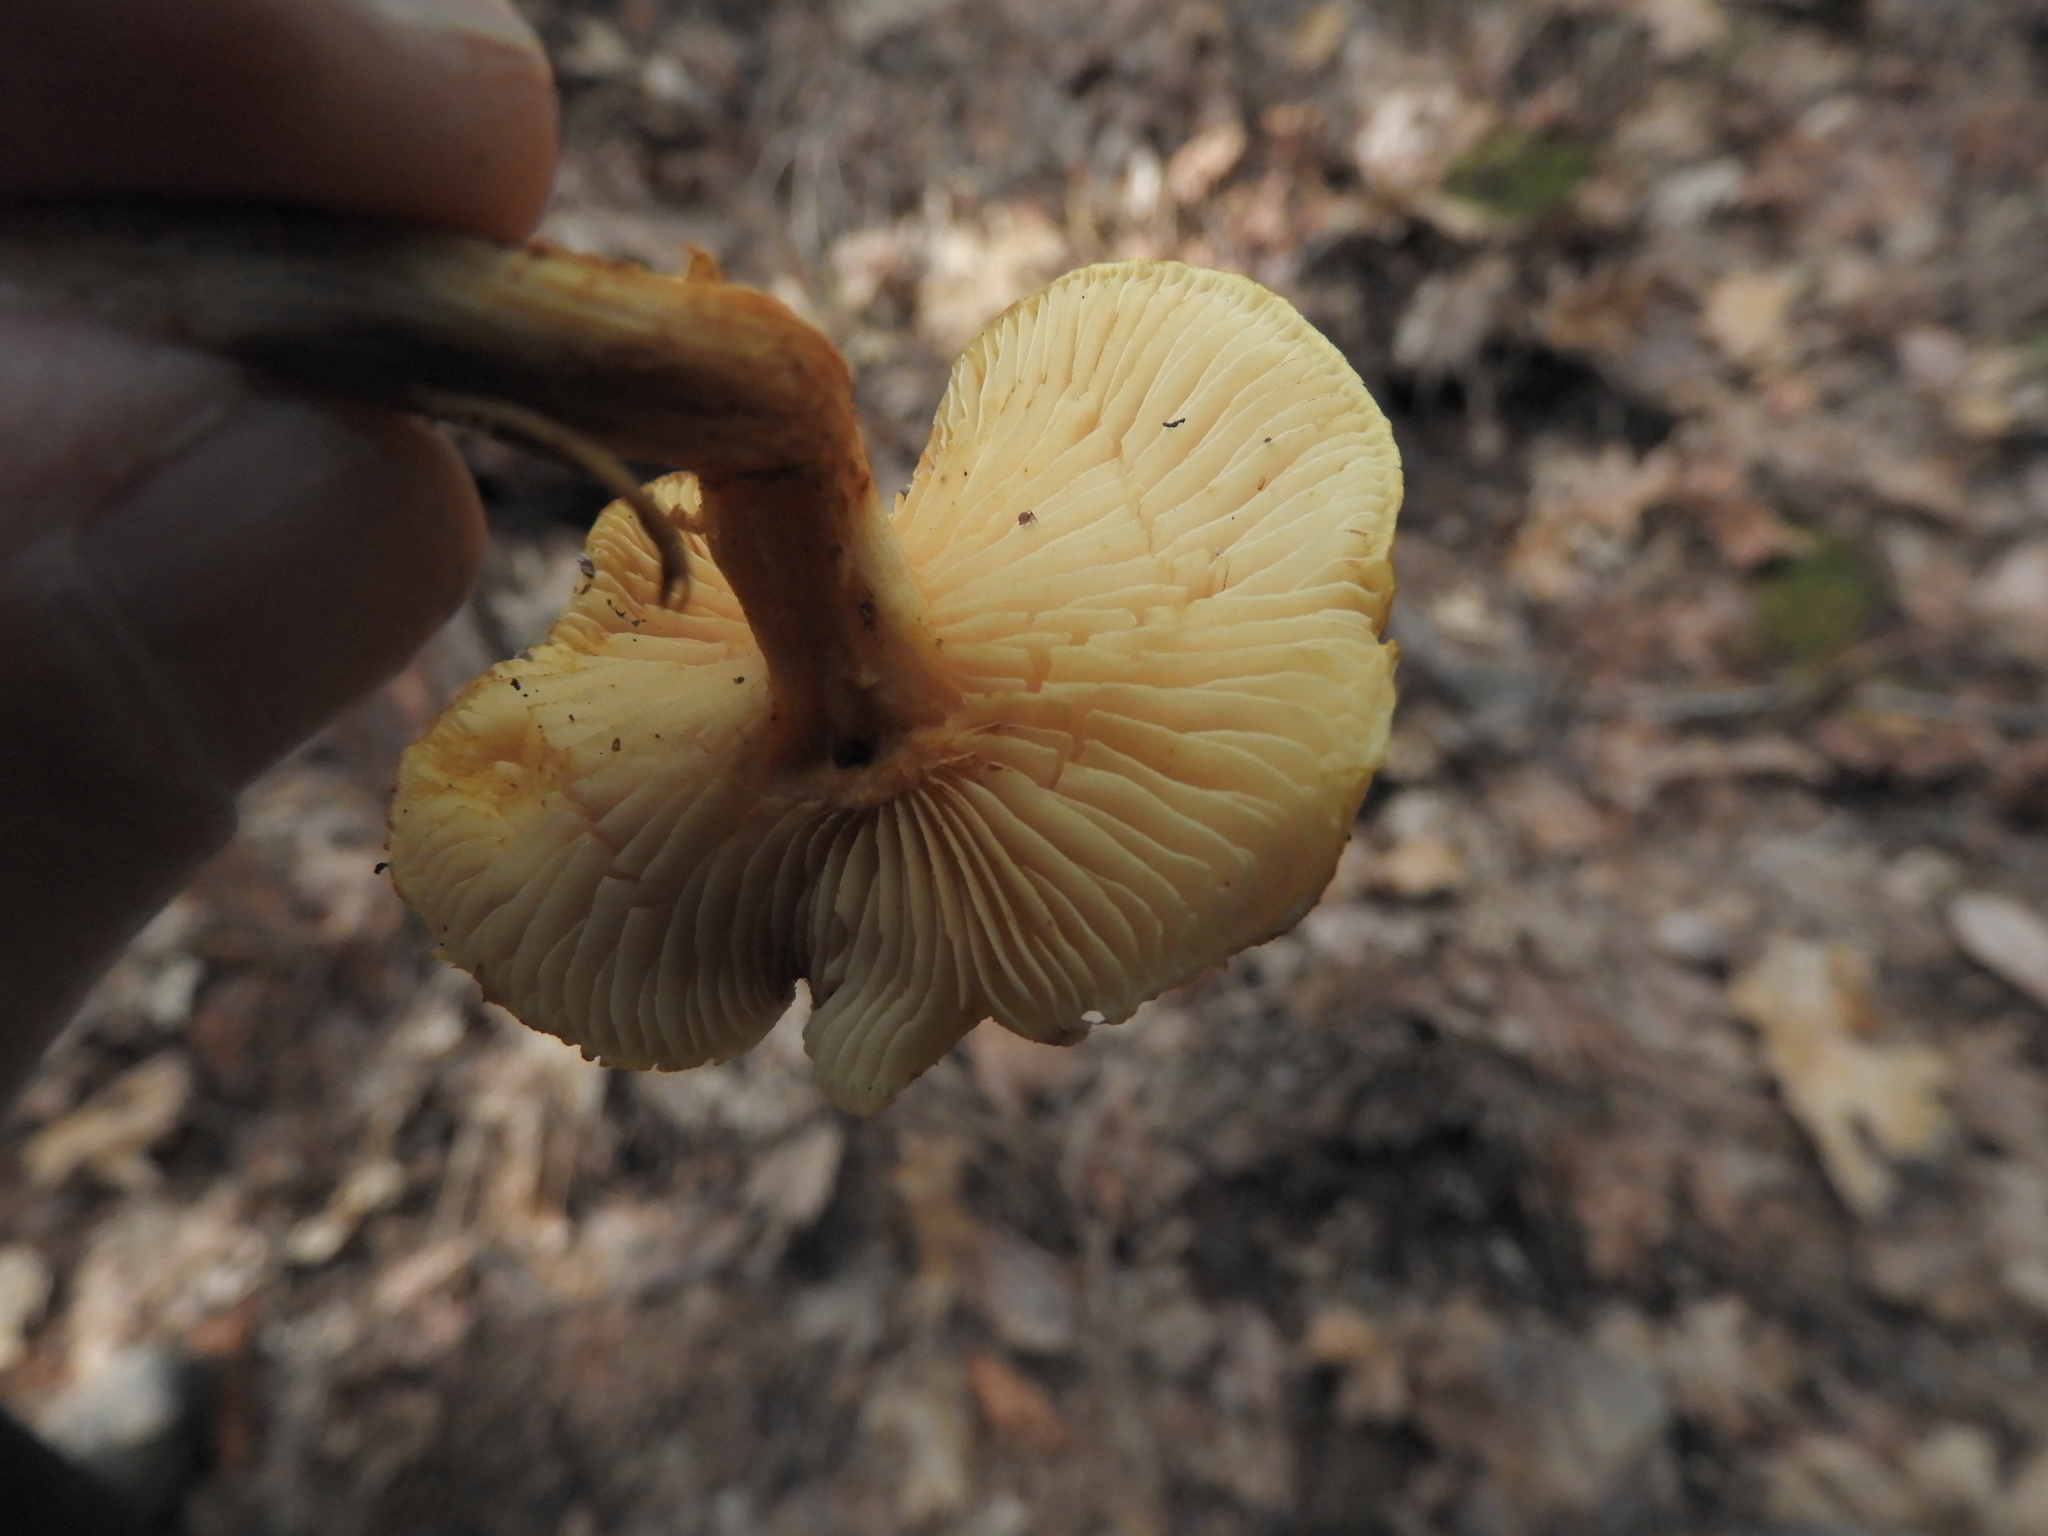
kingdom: Fungi
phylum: Basidiomycota
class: Agaricomycetes
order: Agaricales
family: Hymenogastraceae
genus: Gymnopilus
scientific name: Gymnopilus sapineus
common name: Scaly rustgill
